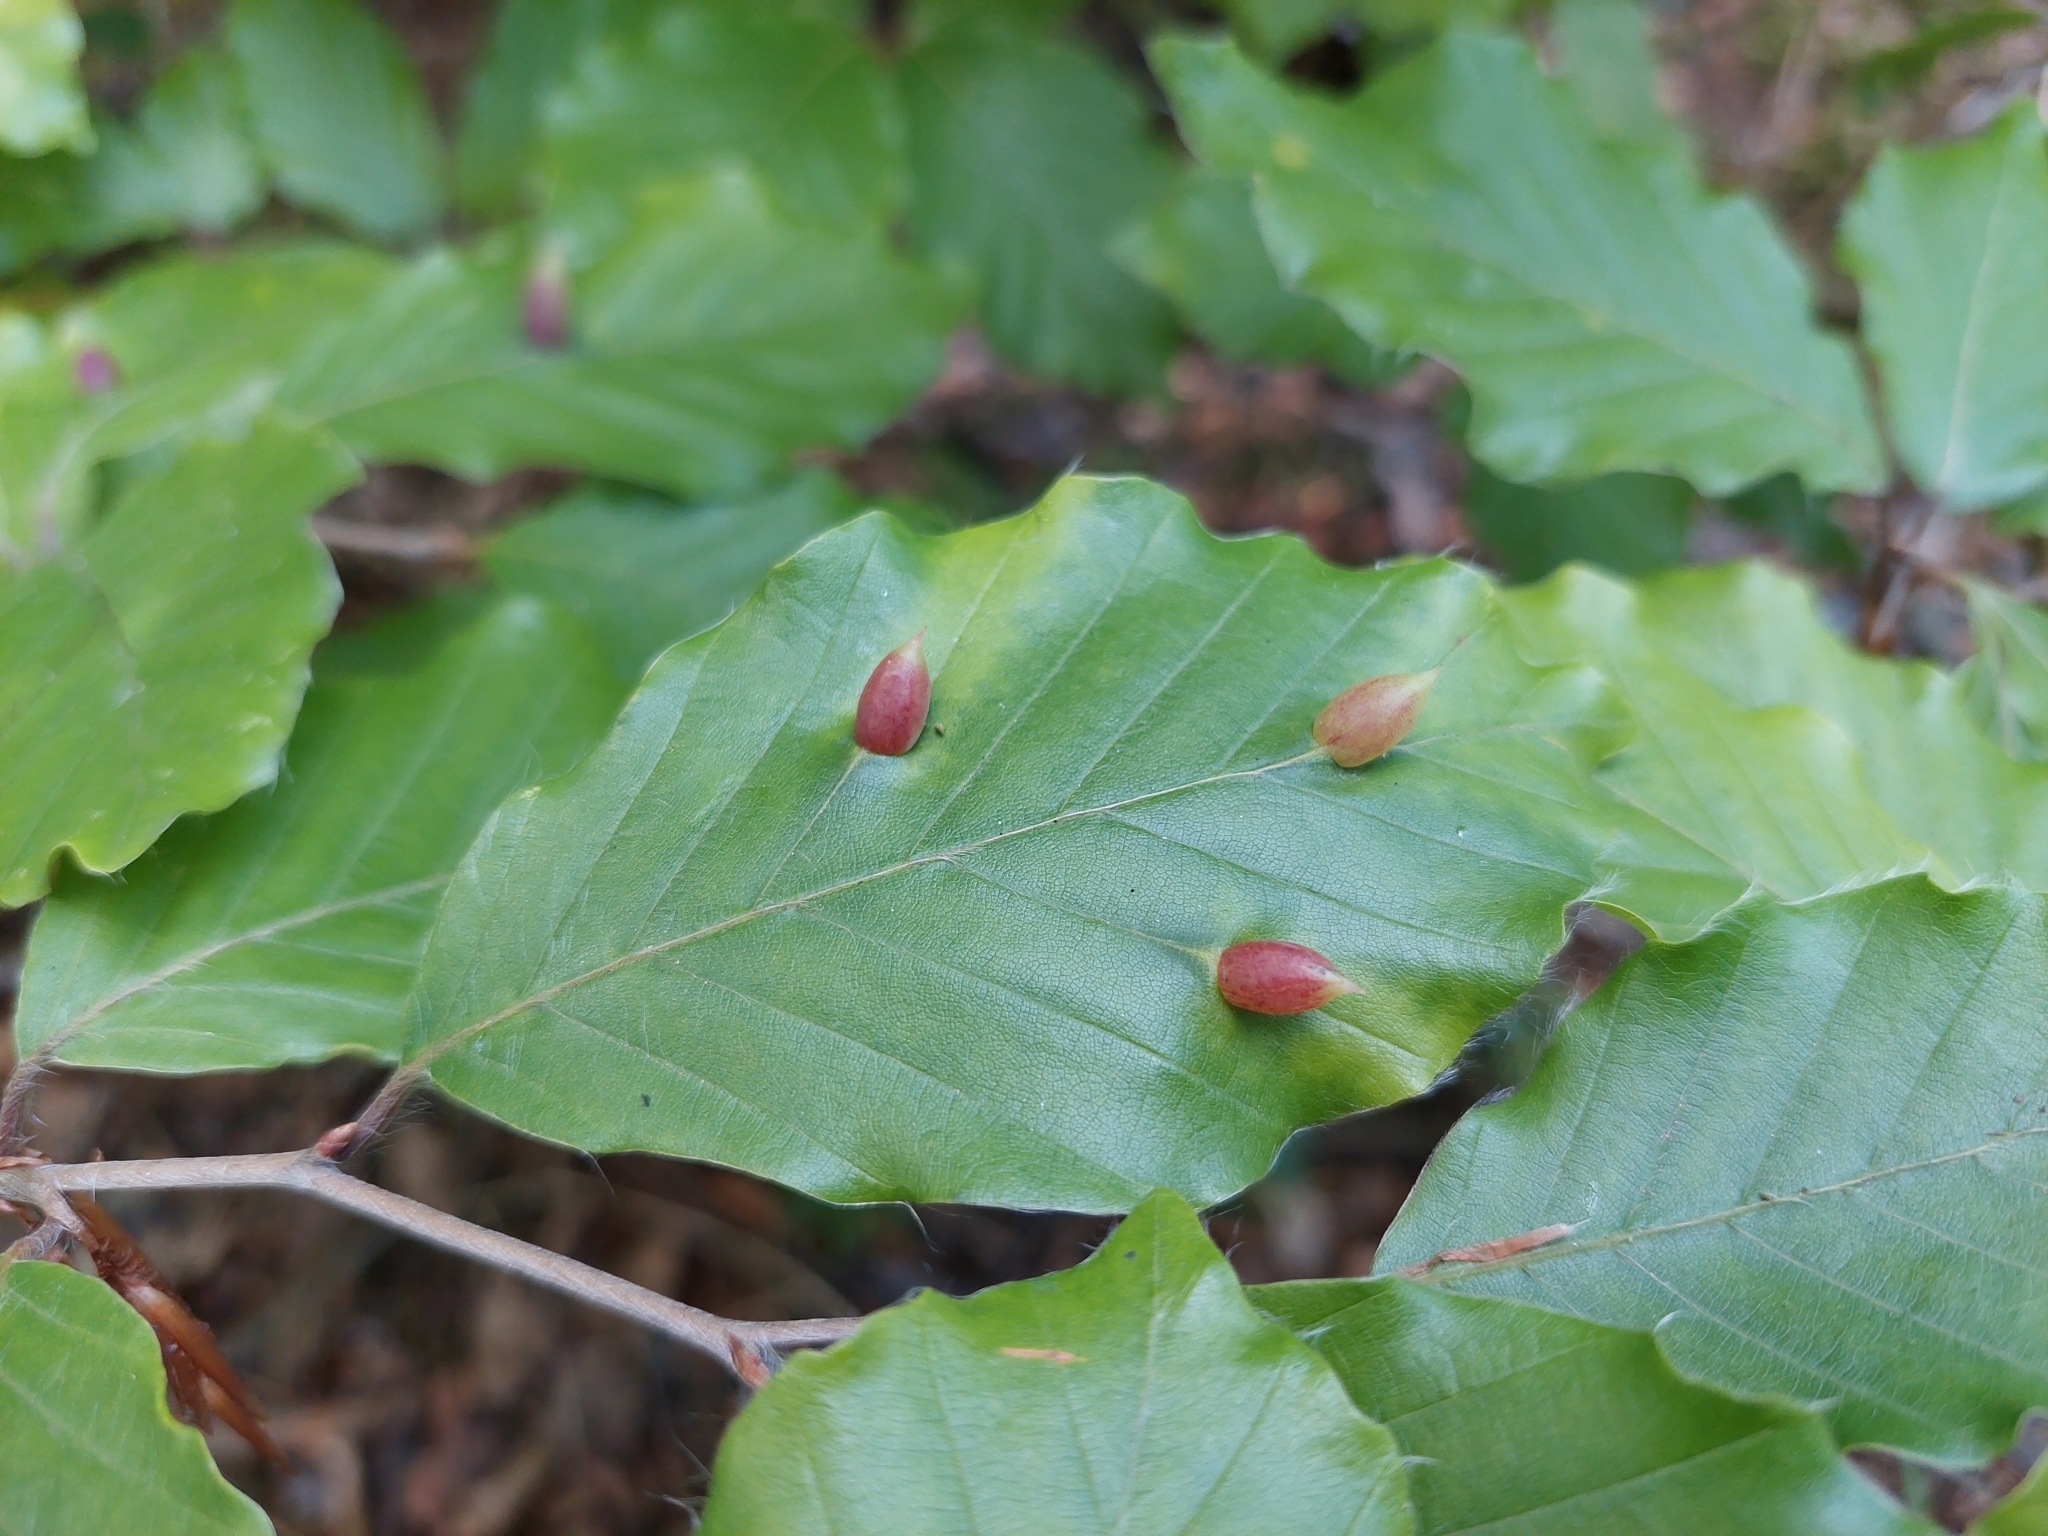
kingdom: Animalia
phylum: Arthropoda
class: Insecta
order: Diptera
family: Cecidomyiidae
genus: Mikiola
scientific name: Mikiola fagi
